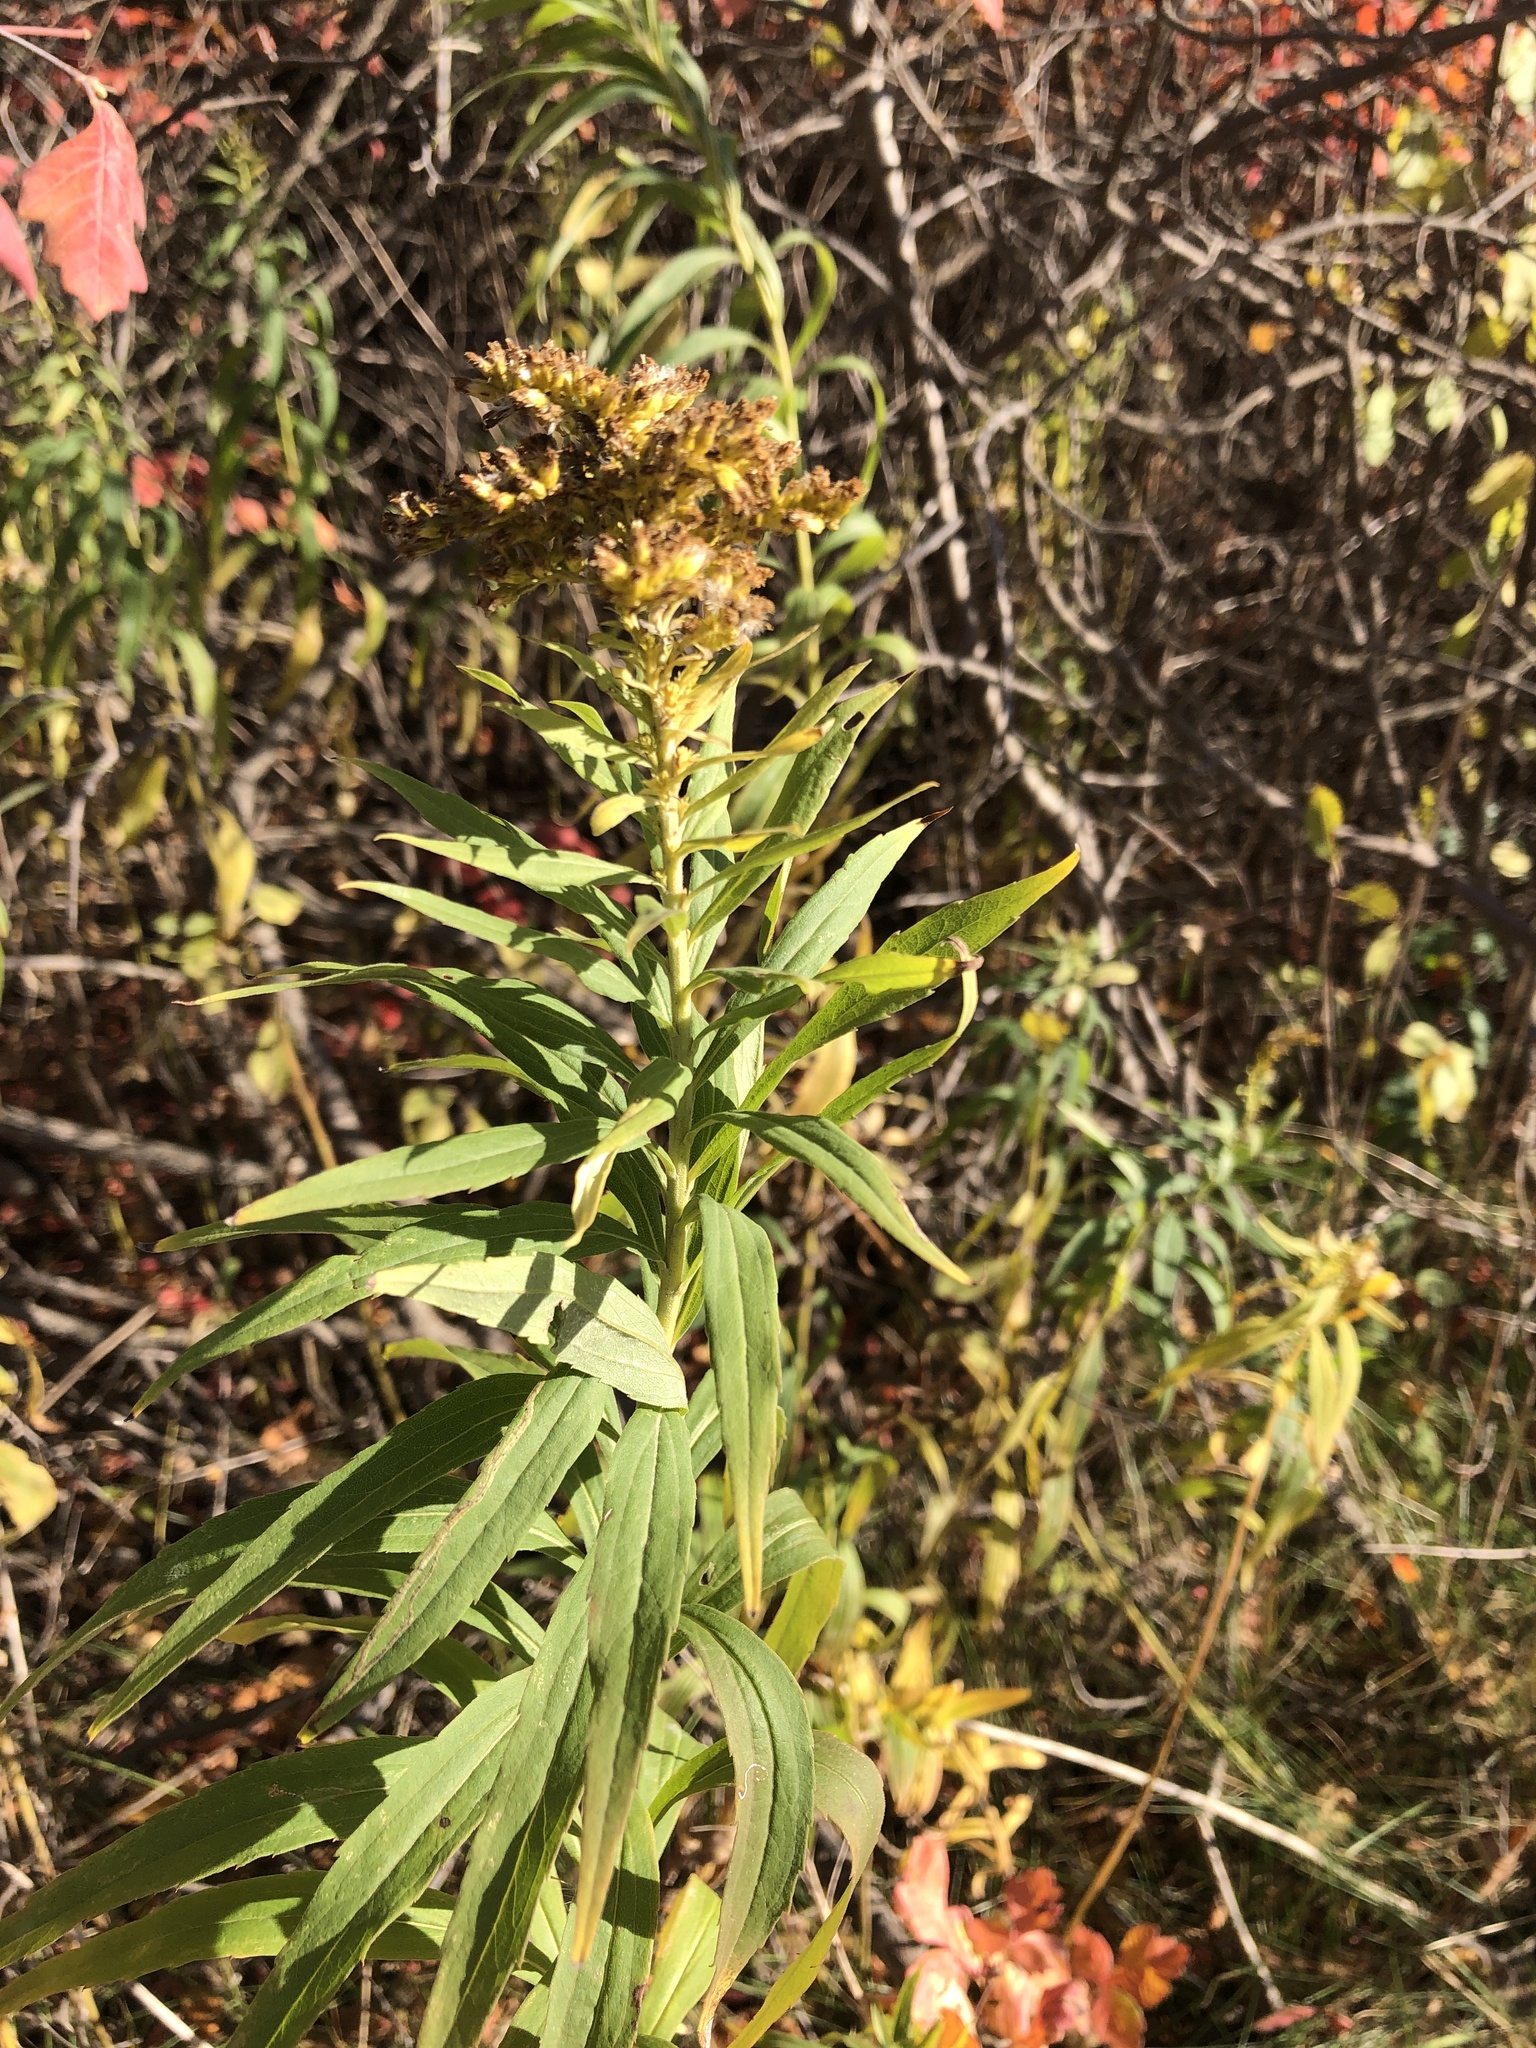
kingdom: Plantae
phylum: Tracheophyta
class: Magnoliopsida
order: Asterales
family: Asteraceae
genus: Solidago
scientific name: Solidago altissima
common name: Late goldenrod
